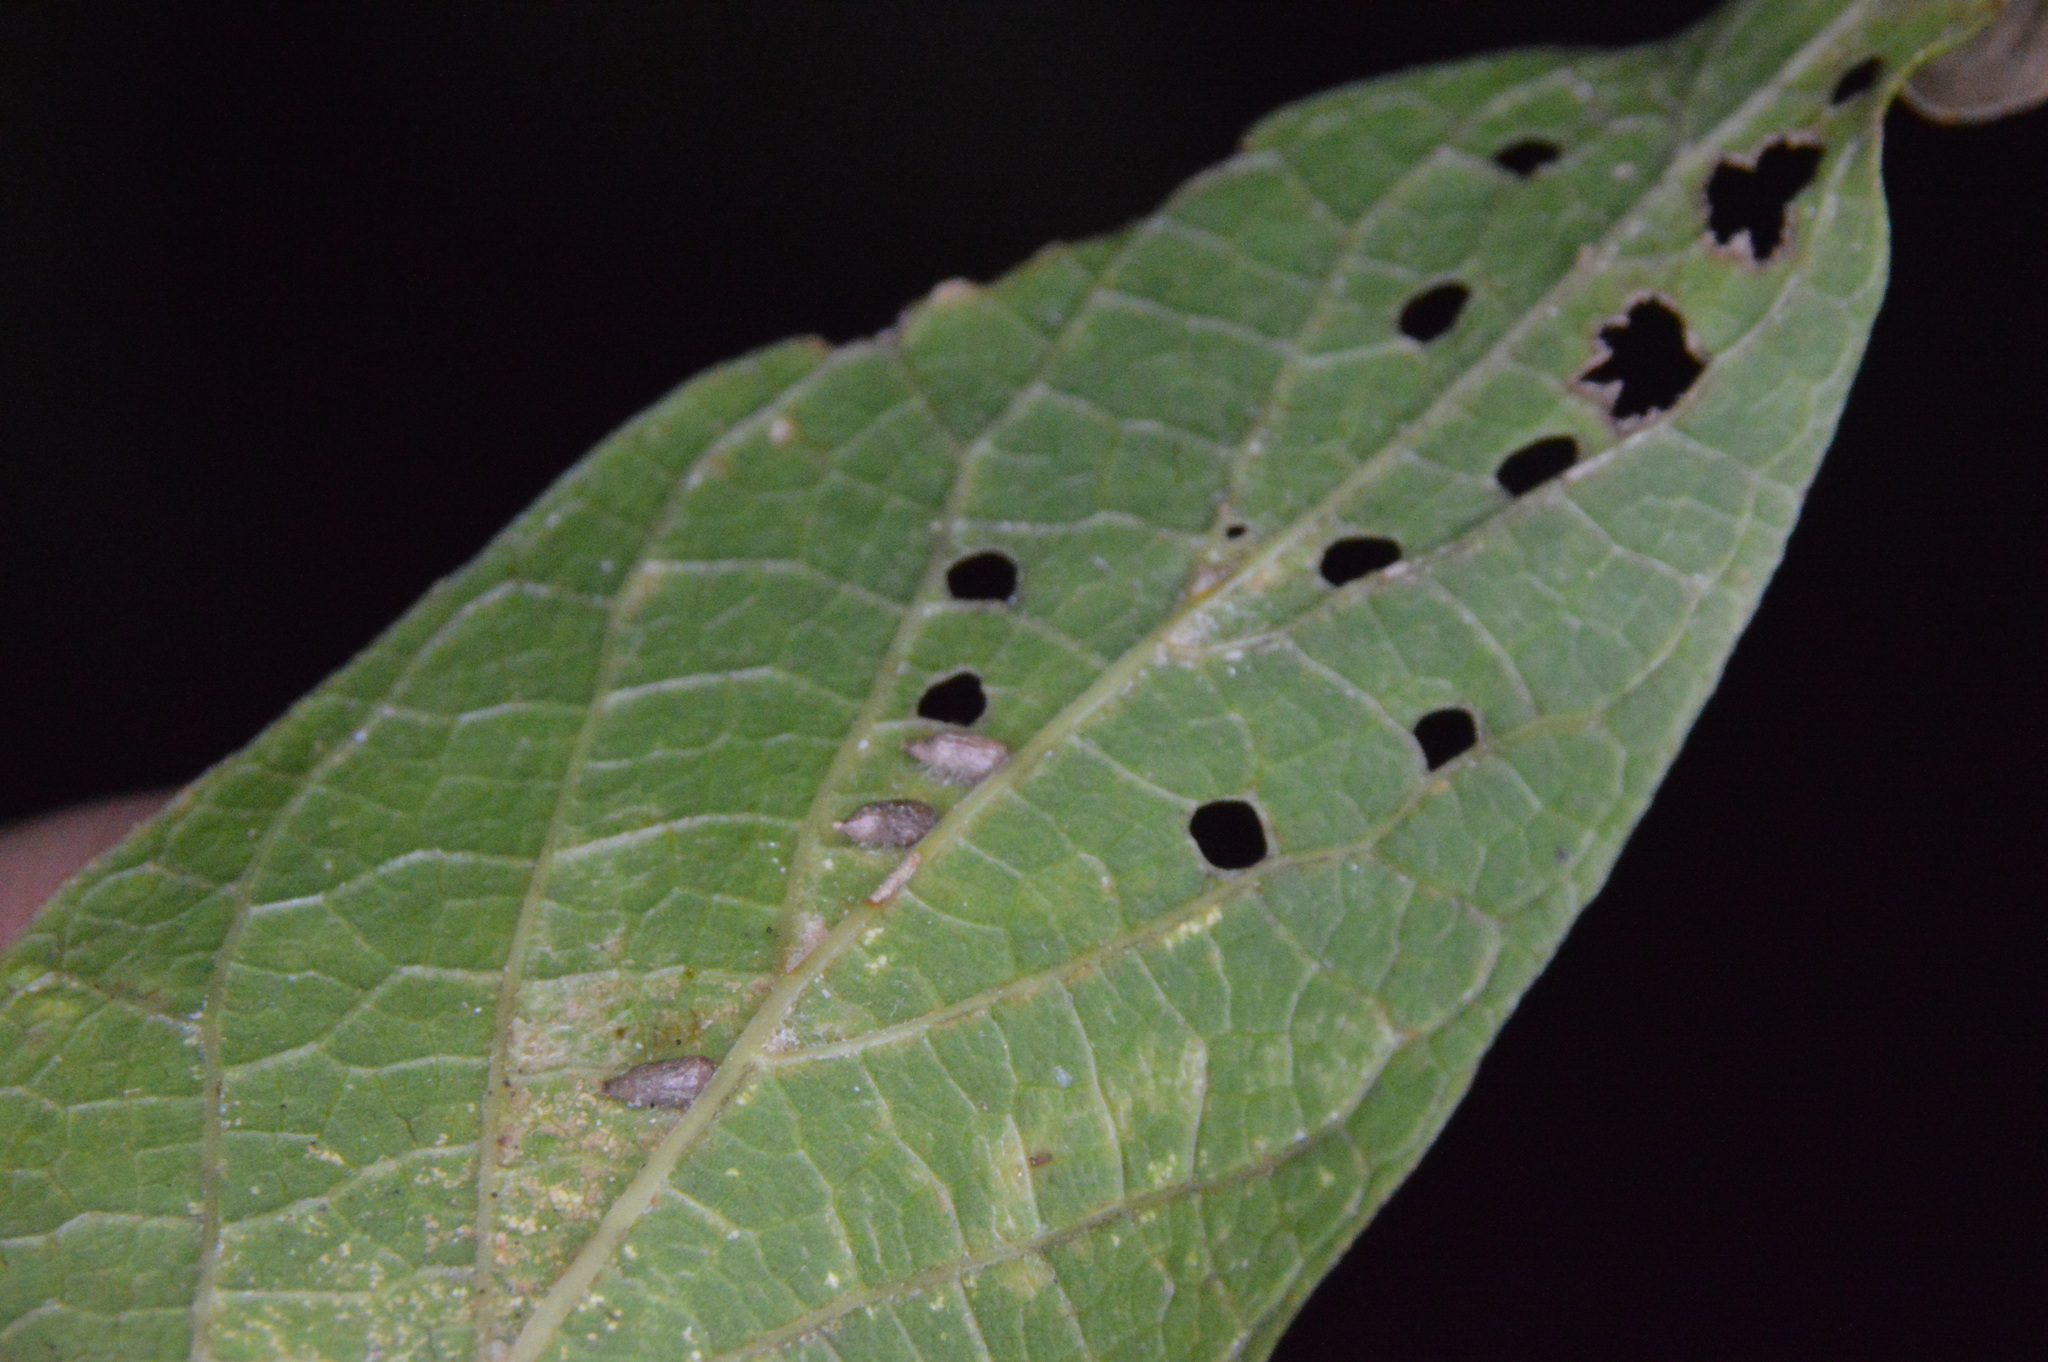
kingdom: Animalia
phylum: Arthropoda
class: Insecta
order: Diptera
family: Cecidomyiidae
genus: Celticecis
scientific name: Celticecis supina
